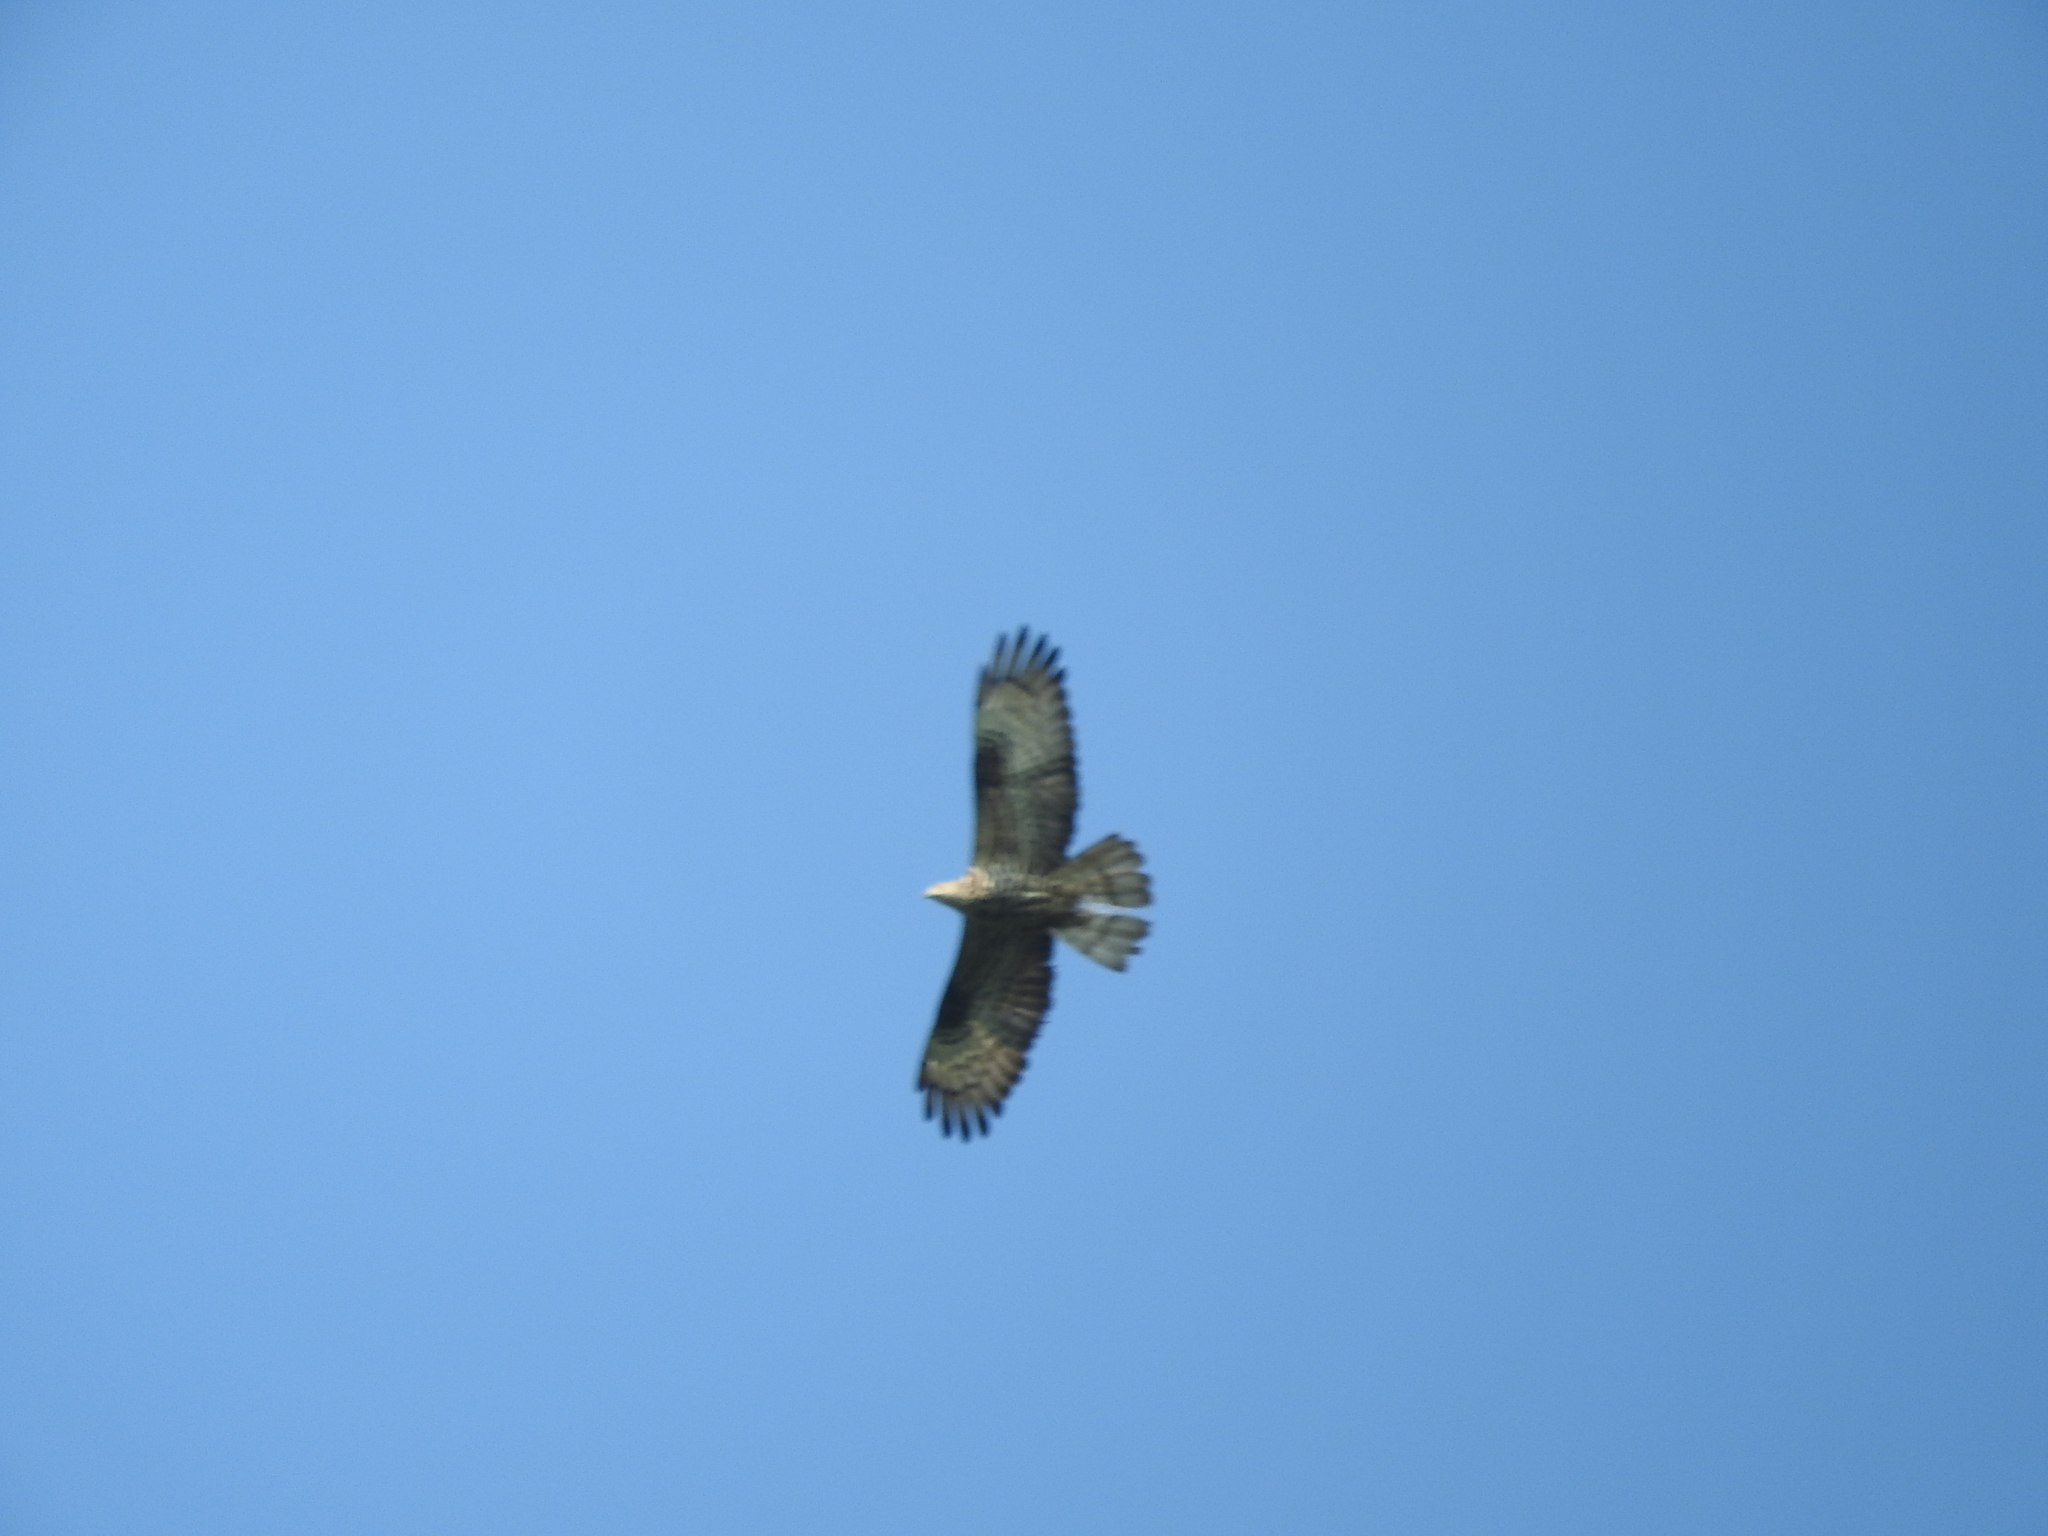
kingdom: Animalia
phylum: Chordata
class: Aves
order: Accipitriformes
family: Accipitridae
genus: Pernis
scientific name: Pernis apivorus
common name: European honey buzzard
